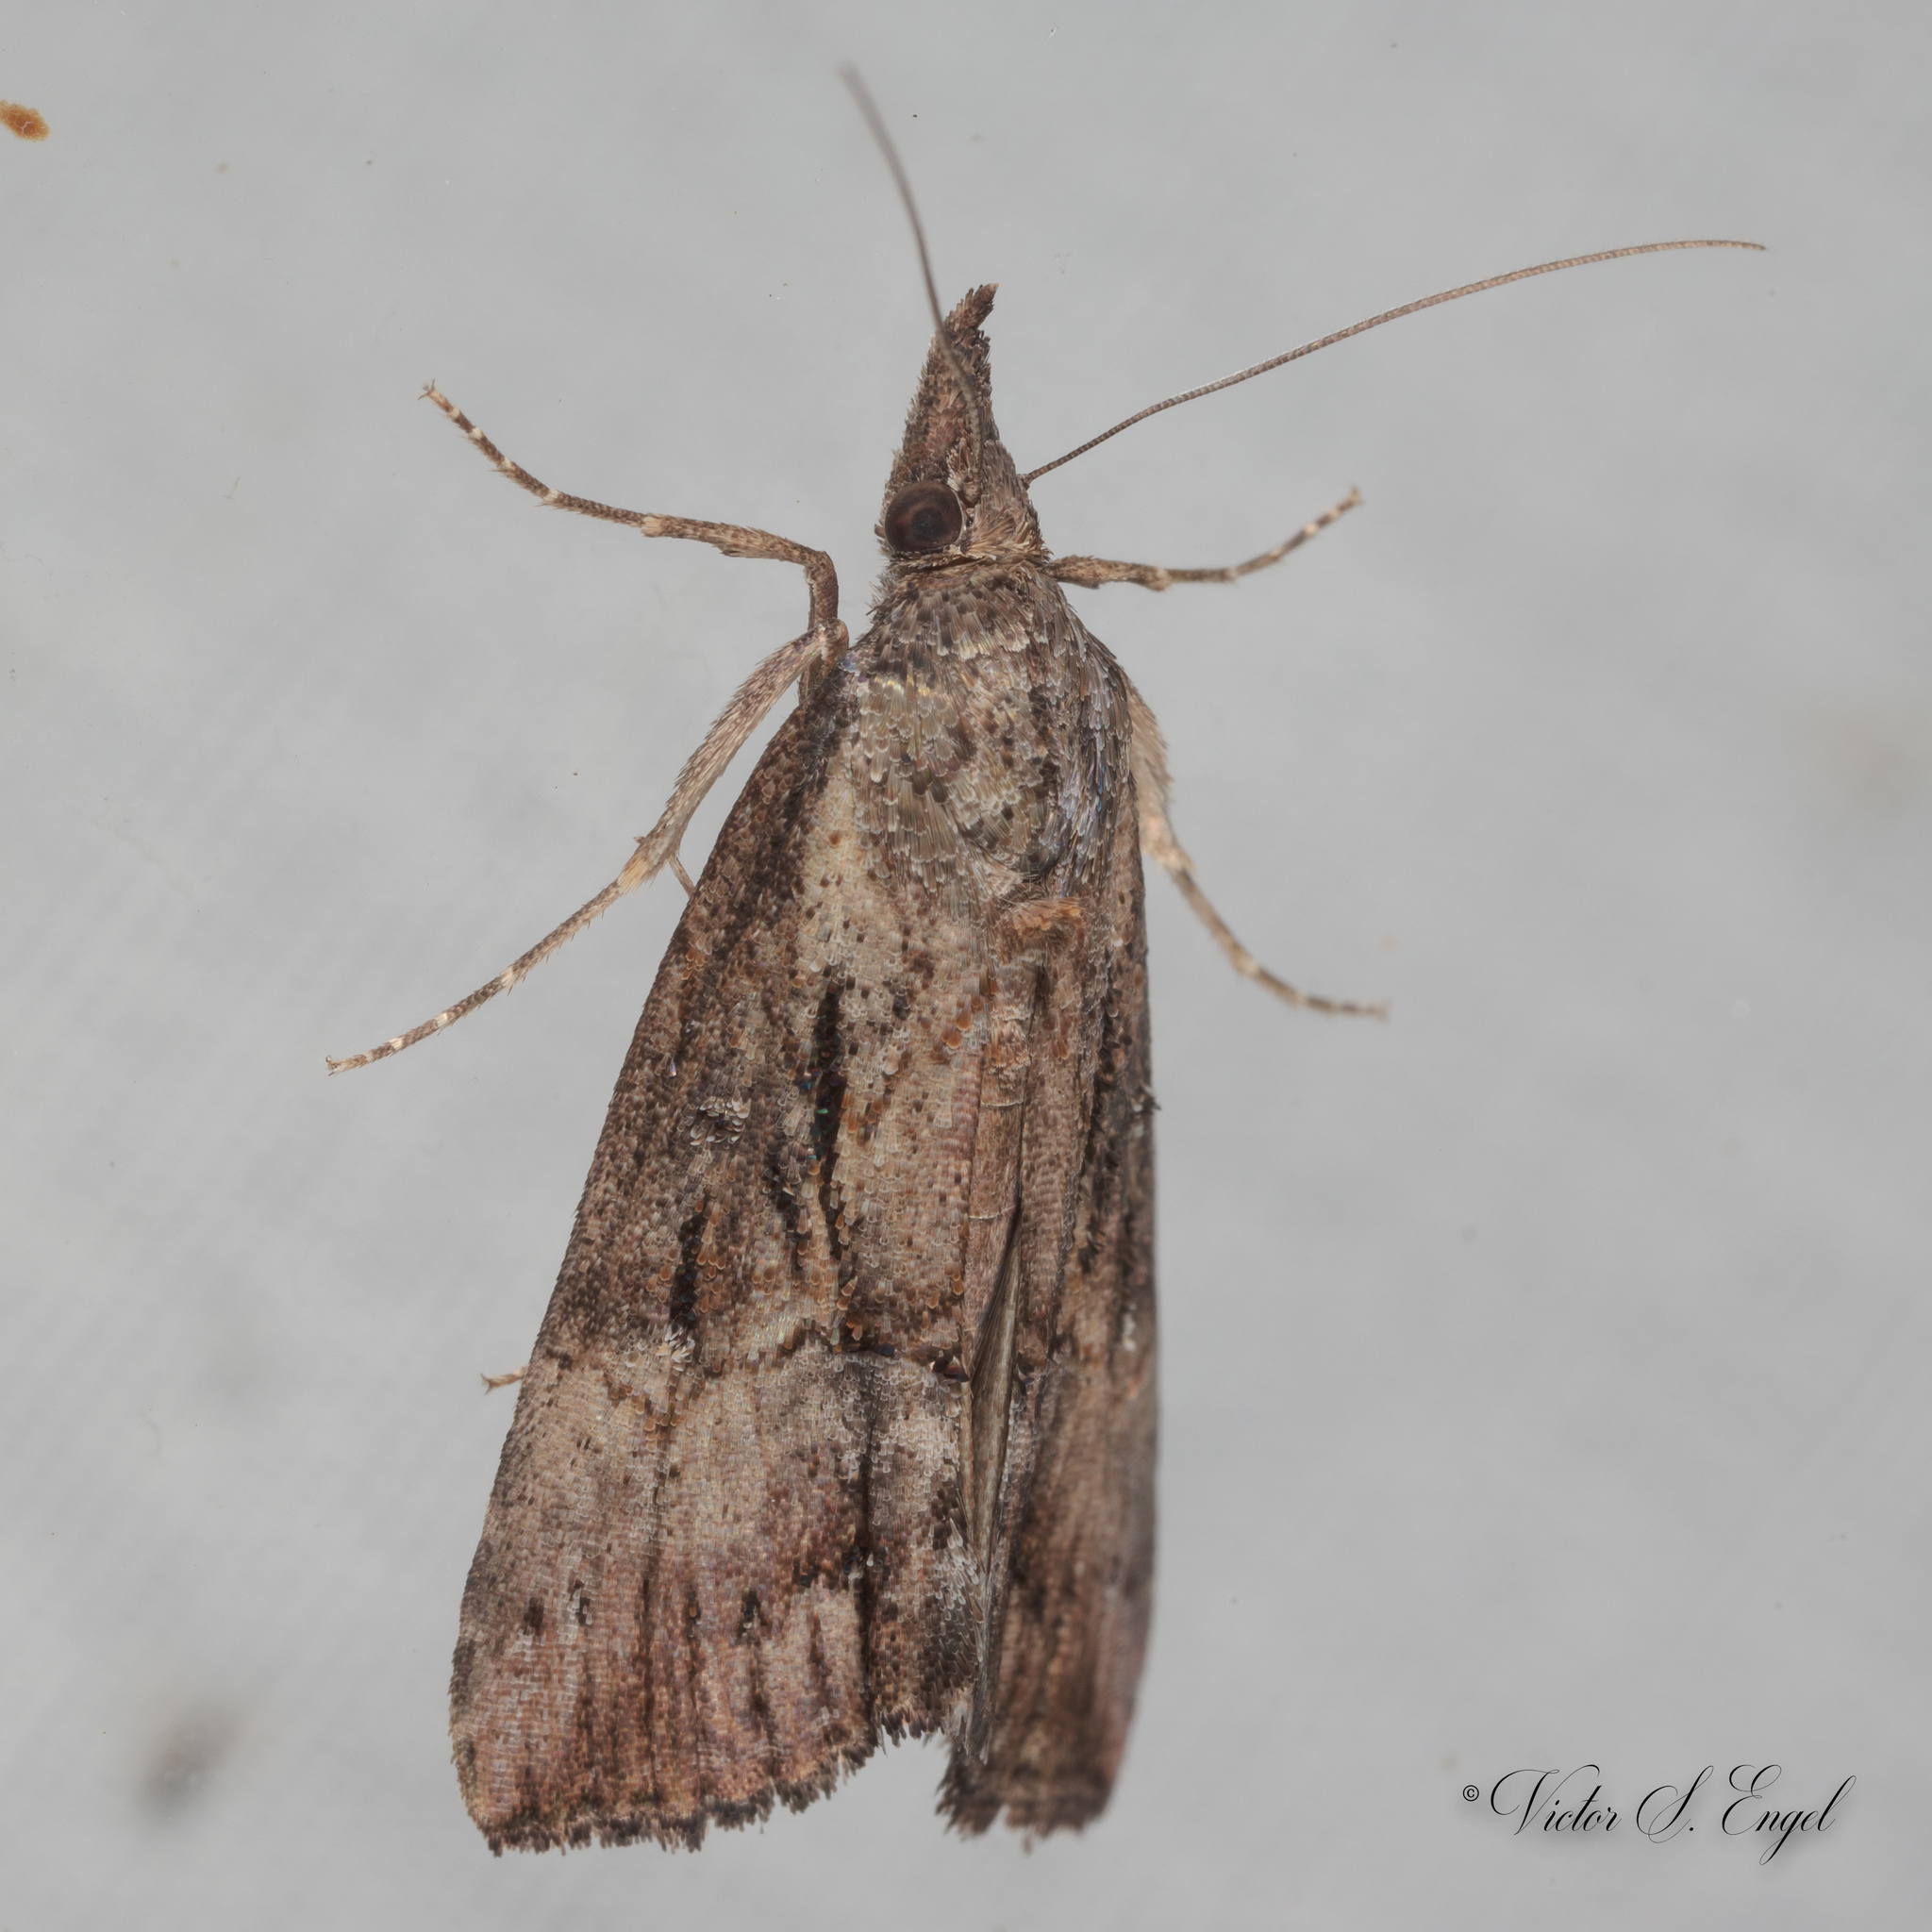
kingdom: Animalia
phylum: Arthropoda
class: Insecta
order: Lepidoptera
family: Erebidae
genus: Hypena
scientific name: Hypena scabra
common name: Green cloverworm
